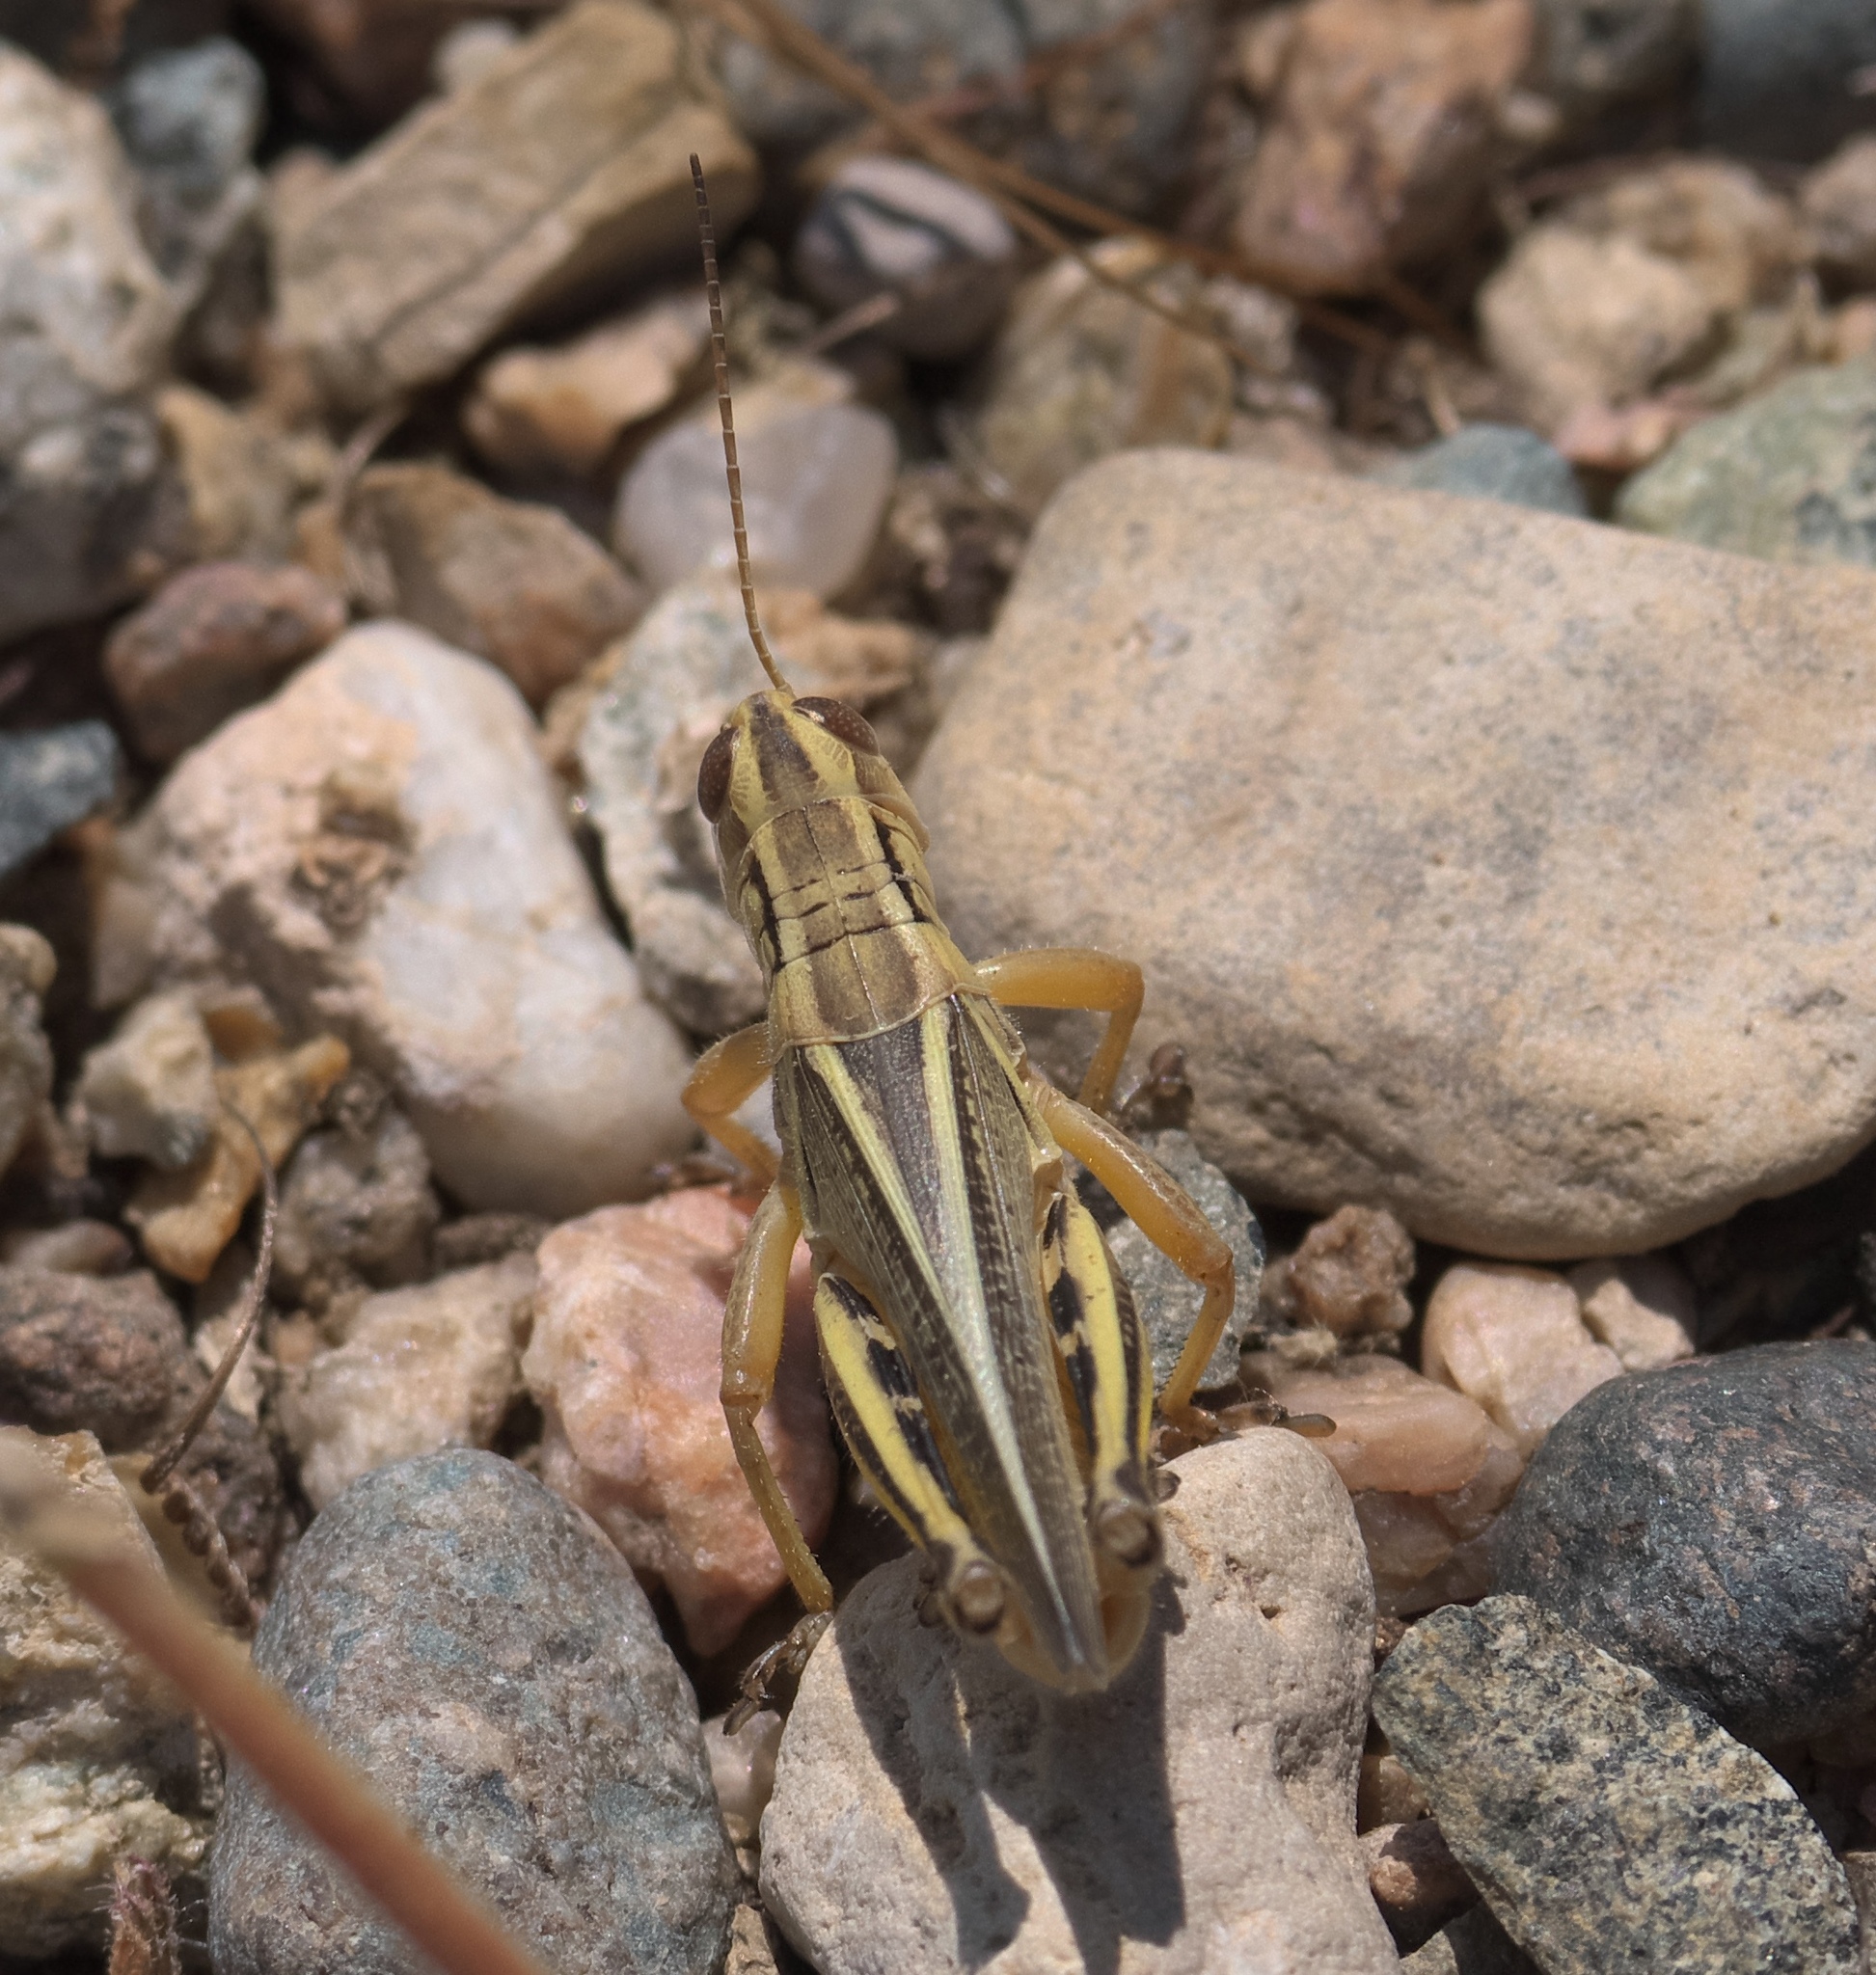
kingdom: Animalia
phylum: Arthropoda
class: Insecta
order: Orthoptera
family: Acrididae
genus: Melanoplus
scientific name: Melanoplus bivittatus
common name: Two-striped grasshopper
